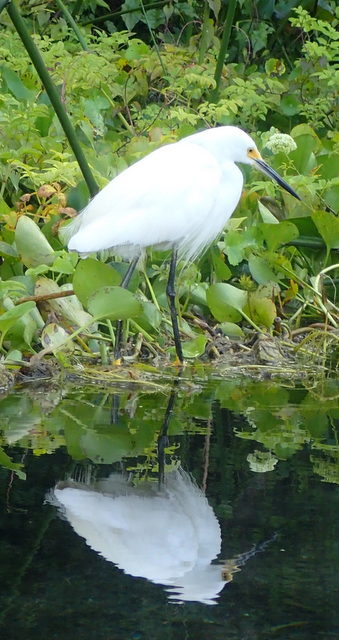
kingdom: Animalia
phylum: Chordata
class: Aves
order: Pelecaniformes
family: Ardeidae
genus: Egretta
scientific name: Egretta thula
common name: Snowy egret
